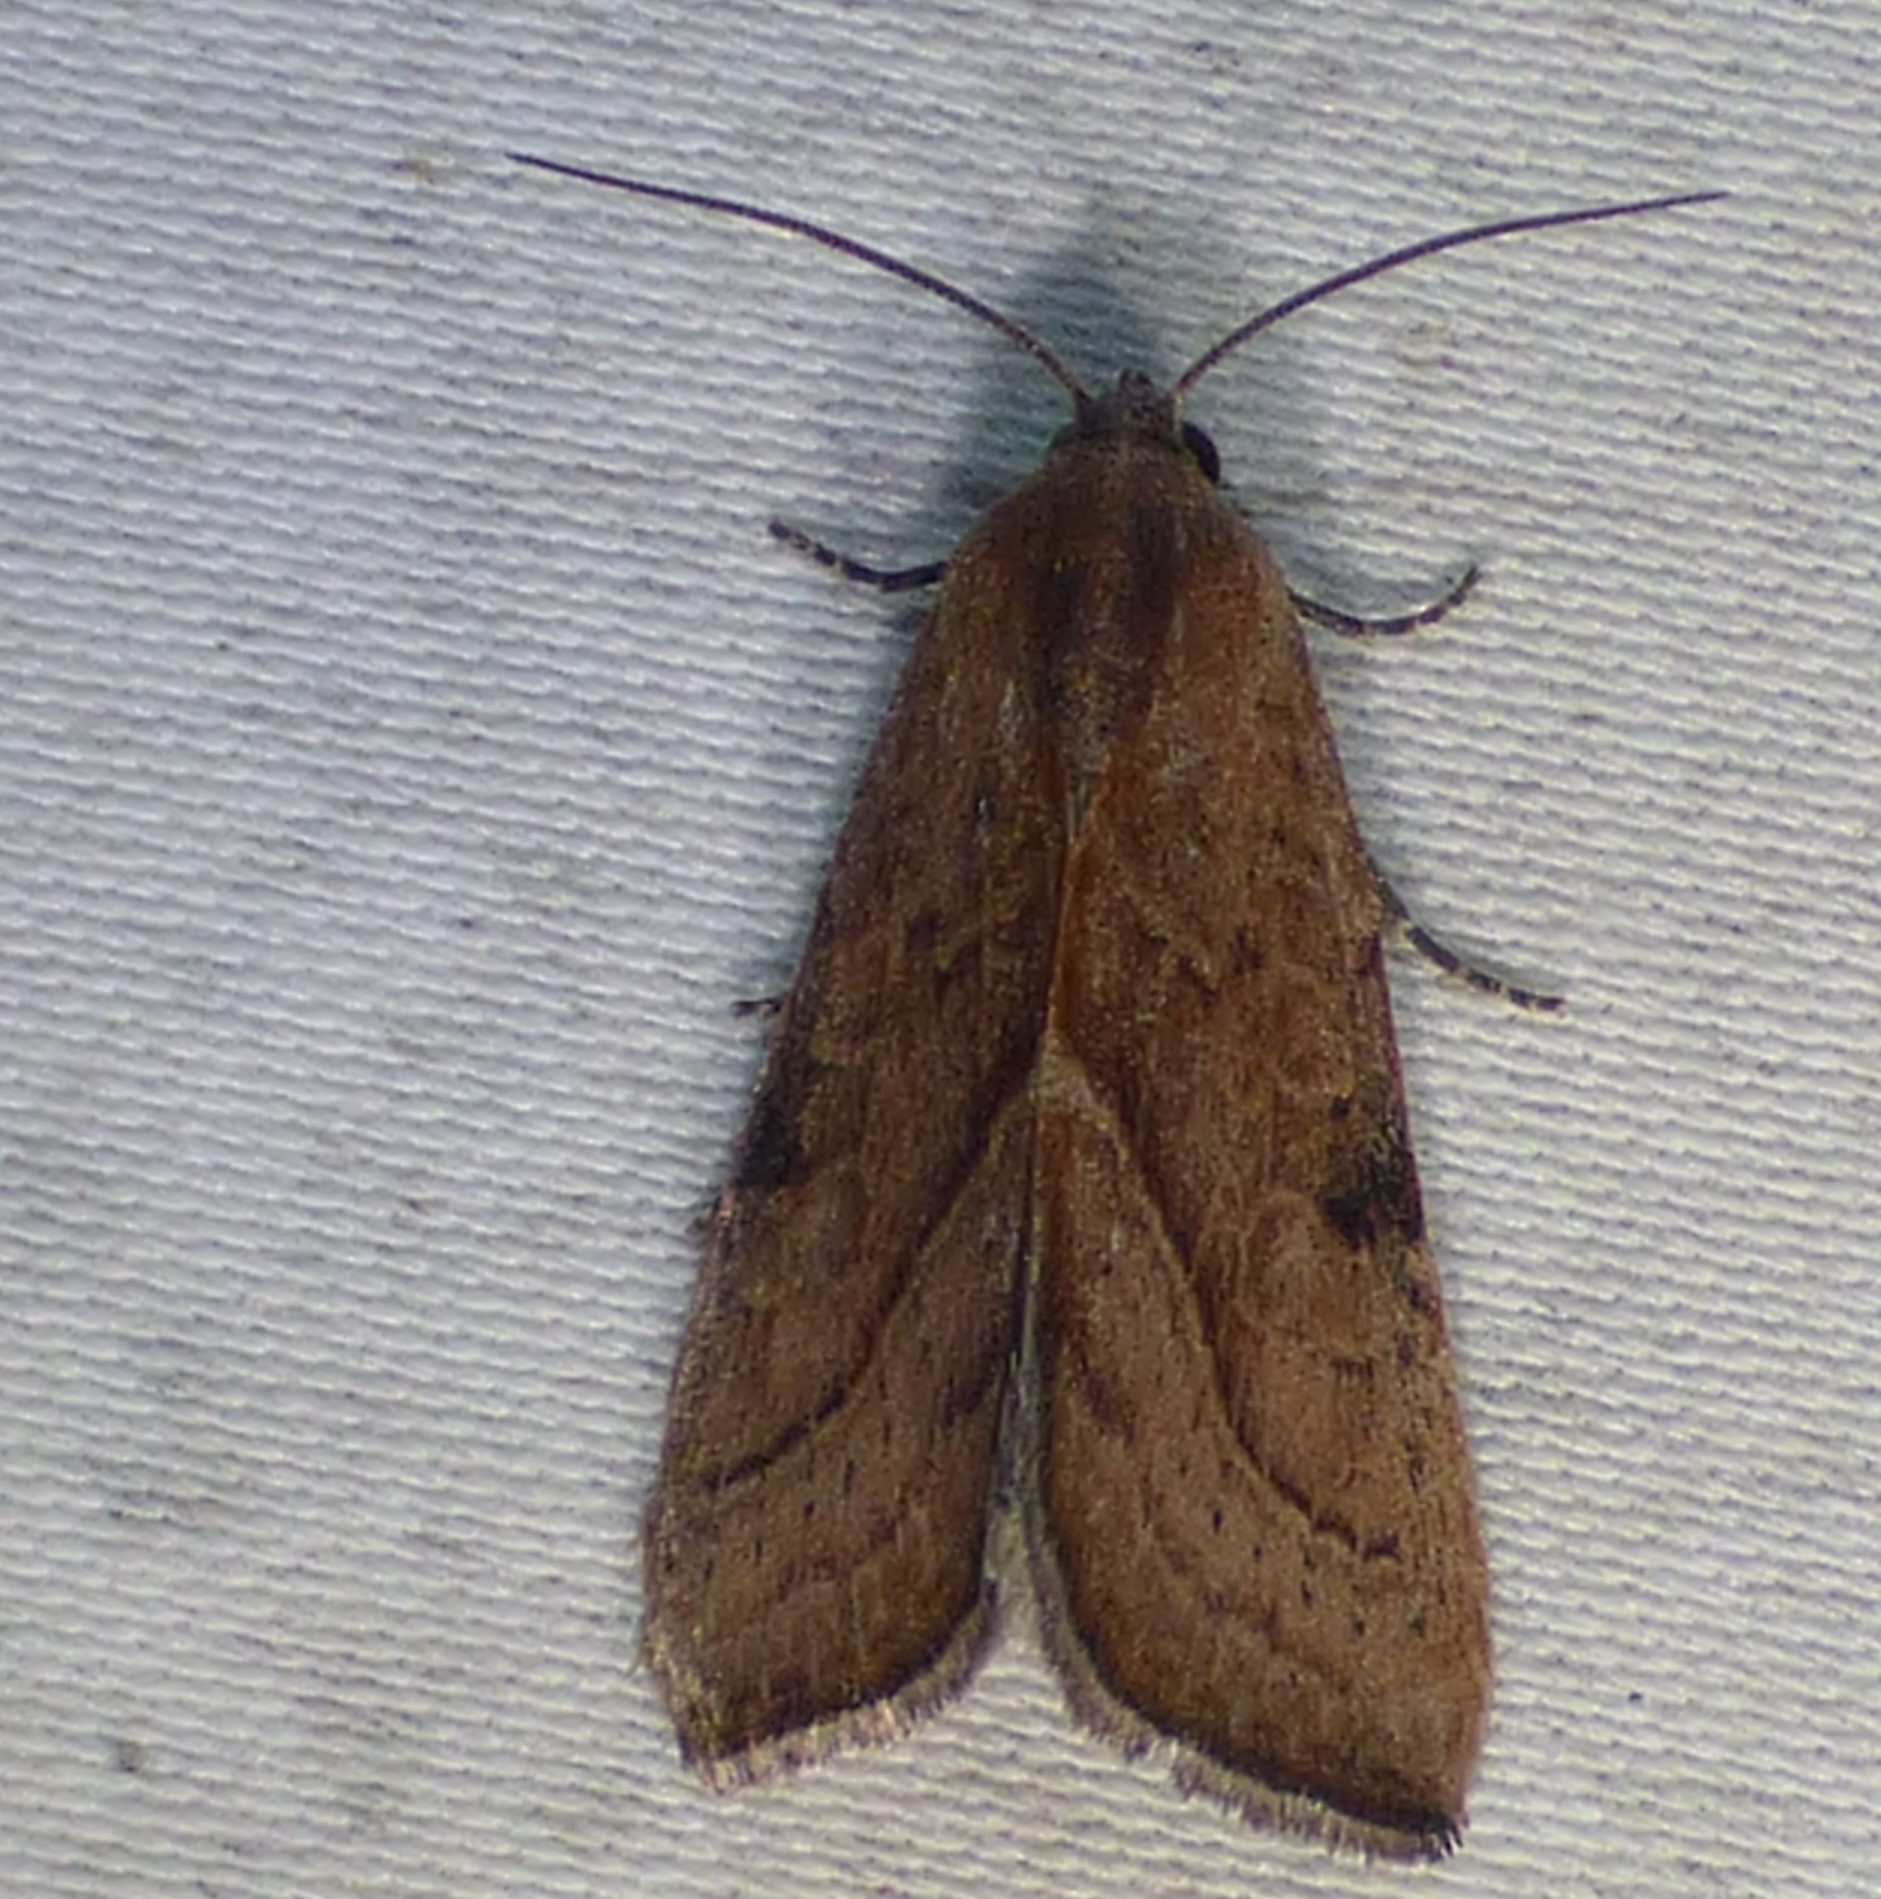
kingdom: Animalia
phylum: Arthropoda
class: Insecta
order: Lepidoptera
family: Noctuidae
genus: Galgula
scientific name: Galgula partita
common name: Wedgeling
